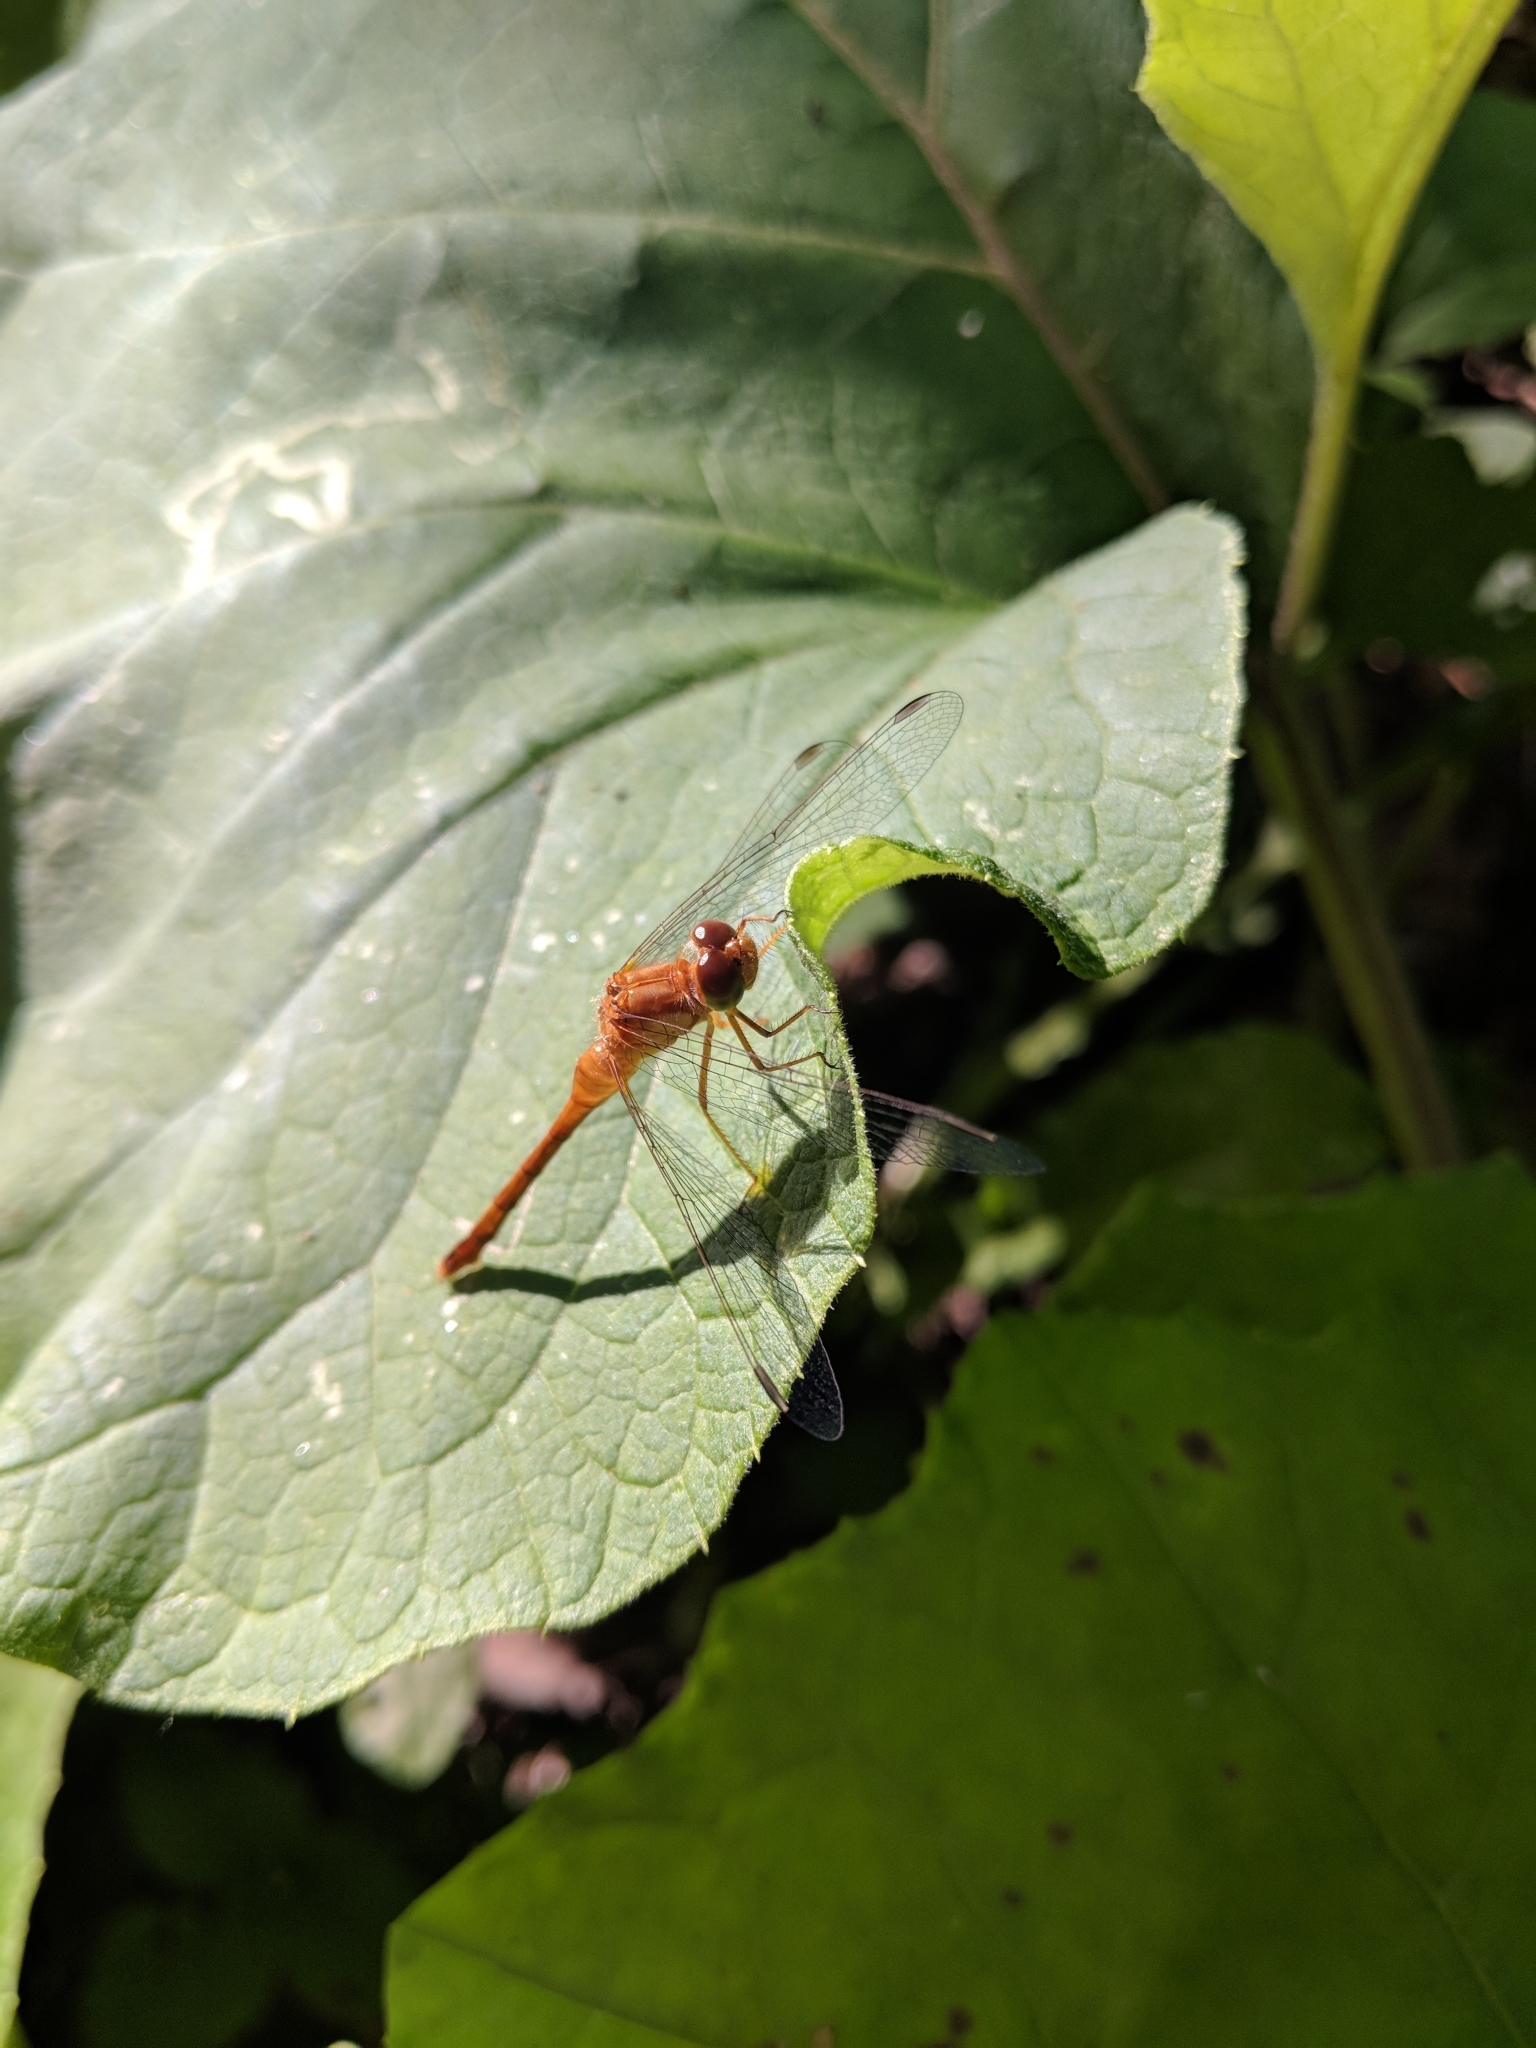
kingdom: Animalia
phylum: Arthropoda
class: Insecta
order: Odonata
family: Libellulidae
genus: Sympetrum
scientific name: Sympetrum vicinum
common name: Autumn meadowhawk
